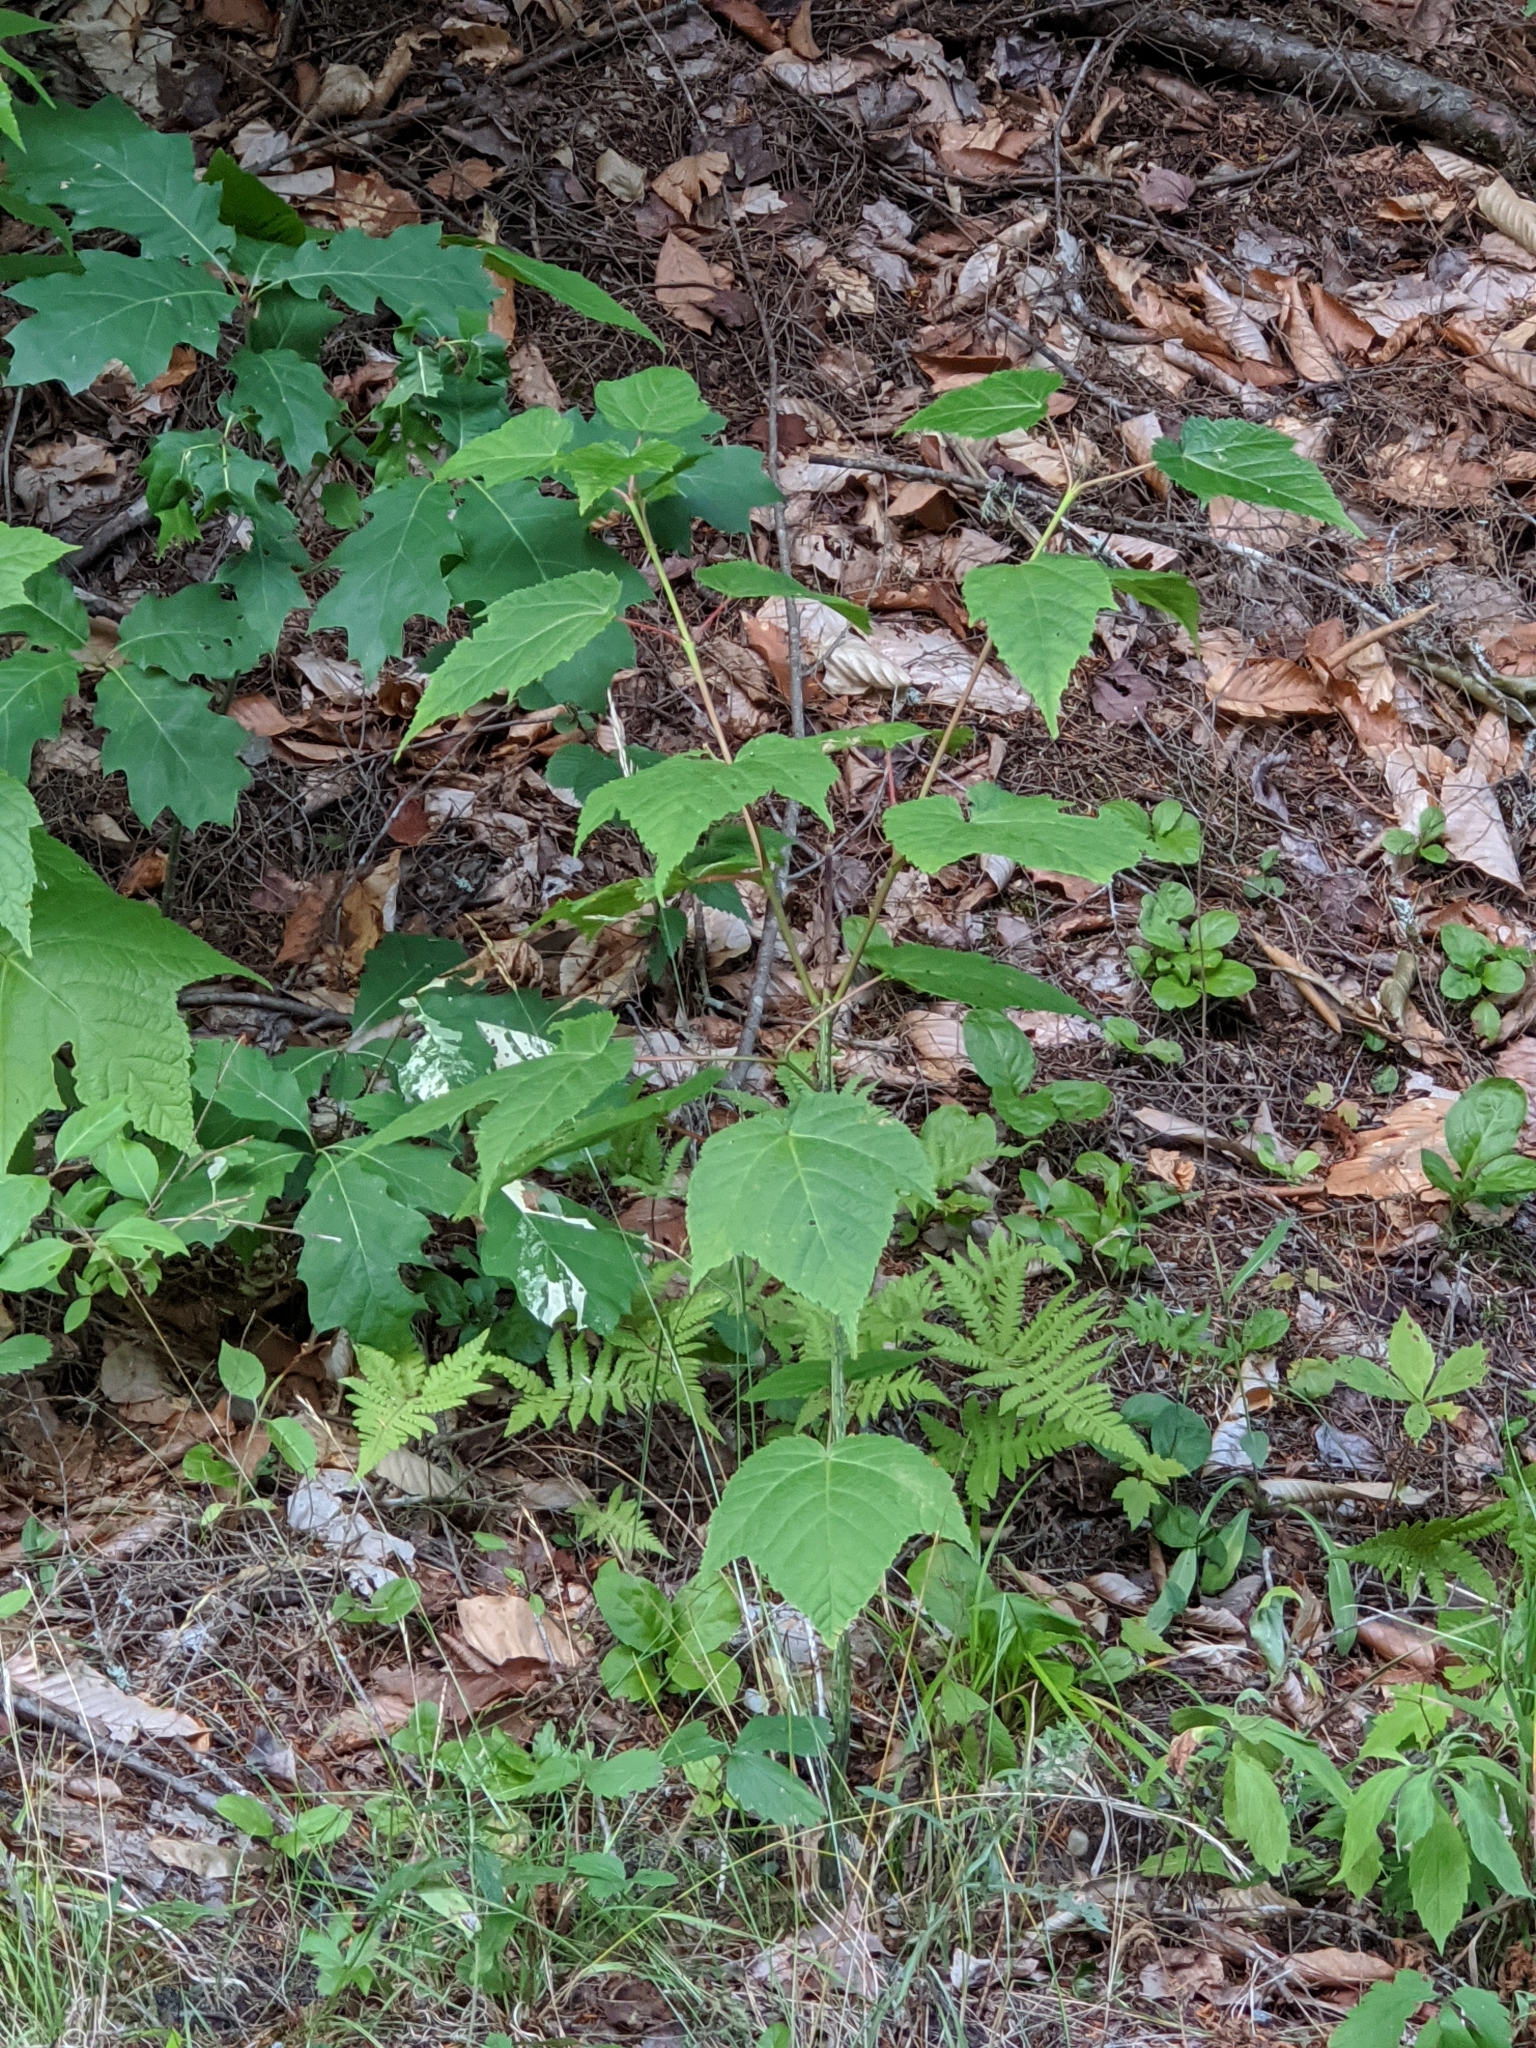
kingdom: Plantae
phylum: Tracheophyta
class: Magnoliopsida
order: Sapindales
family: Sapindaceae
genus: Acer
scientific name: Acer pensylvanicum
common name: Moosewood
